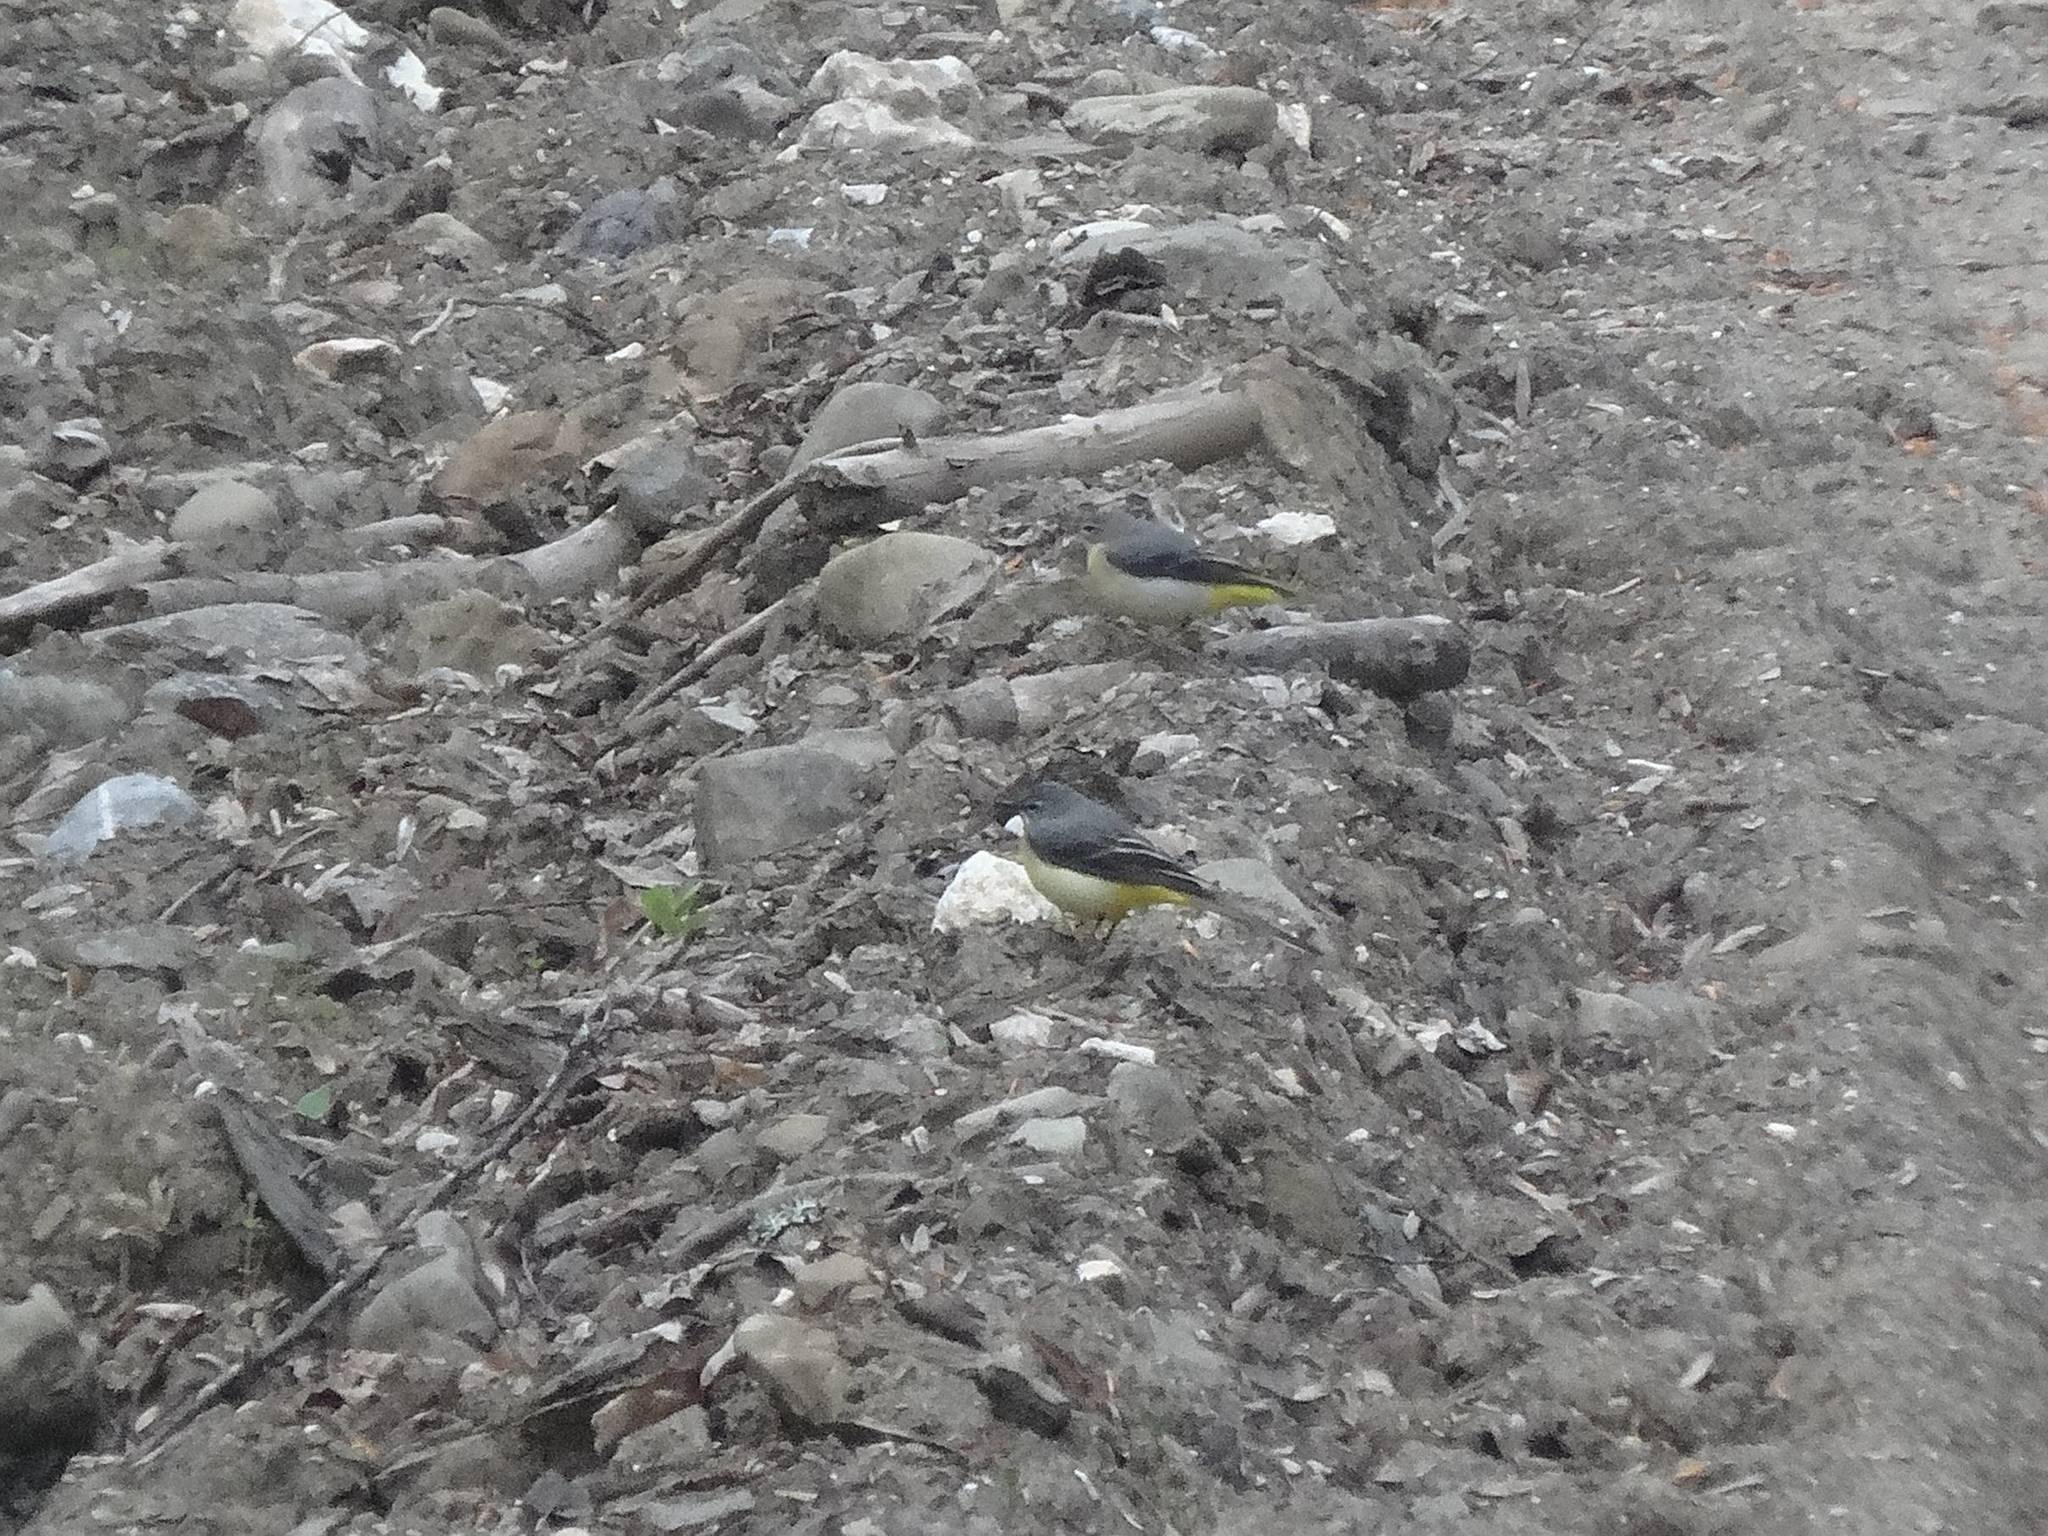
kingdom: Animalia
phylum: Chordata
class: Aves
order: Passeriformes
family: Motacillidae
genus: Motacilla
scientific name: Motacilla cinerea
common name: Grey wagtail
